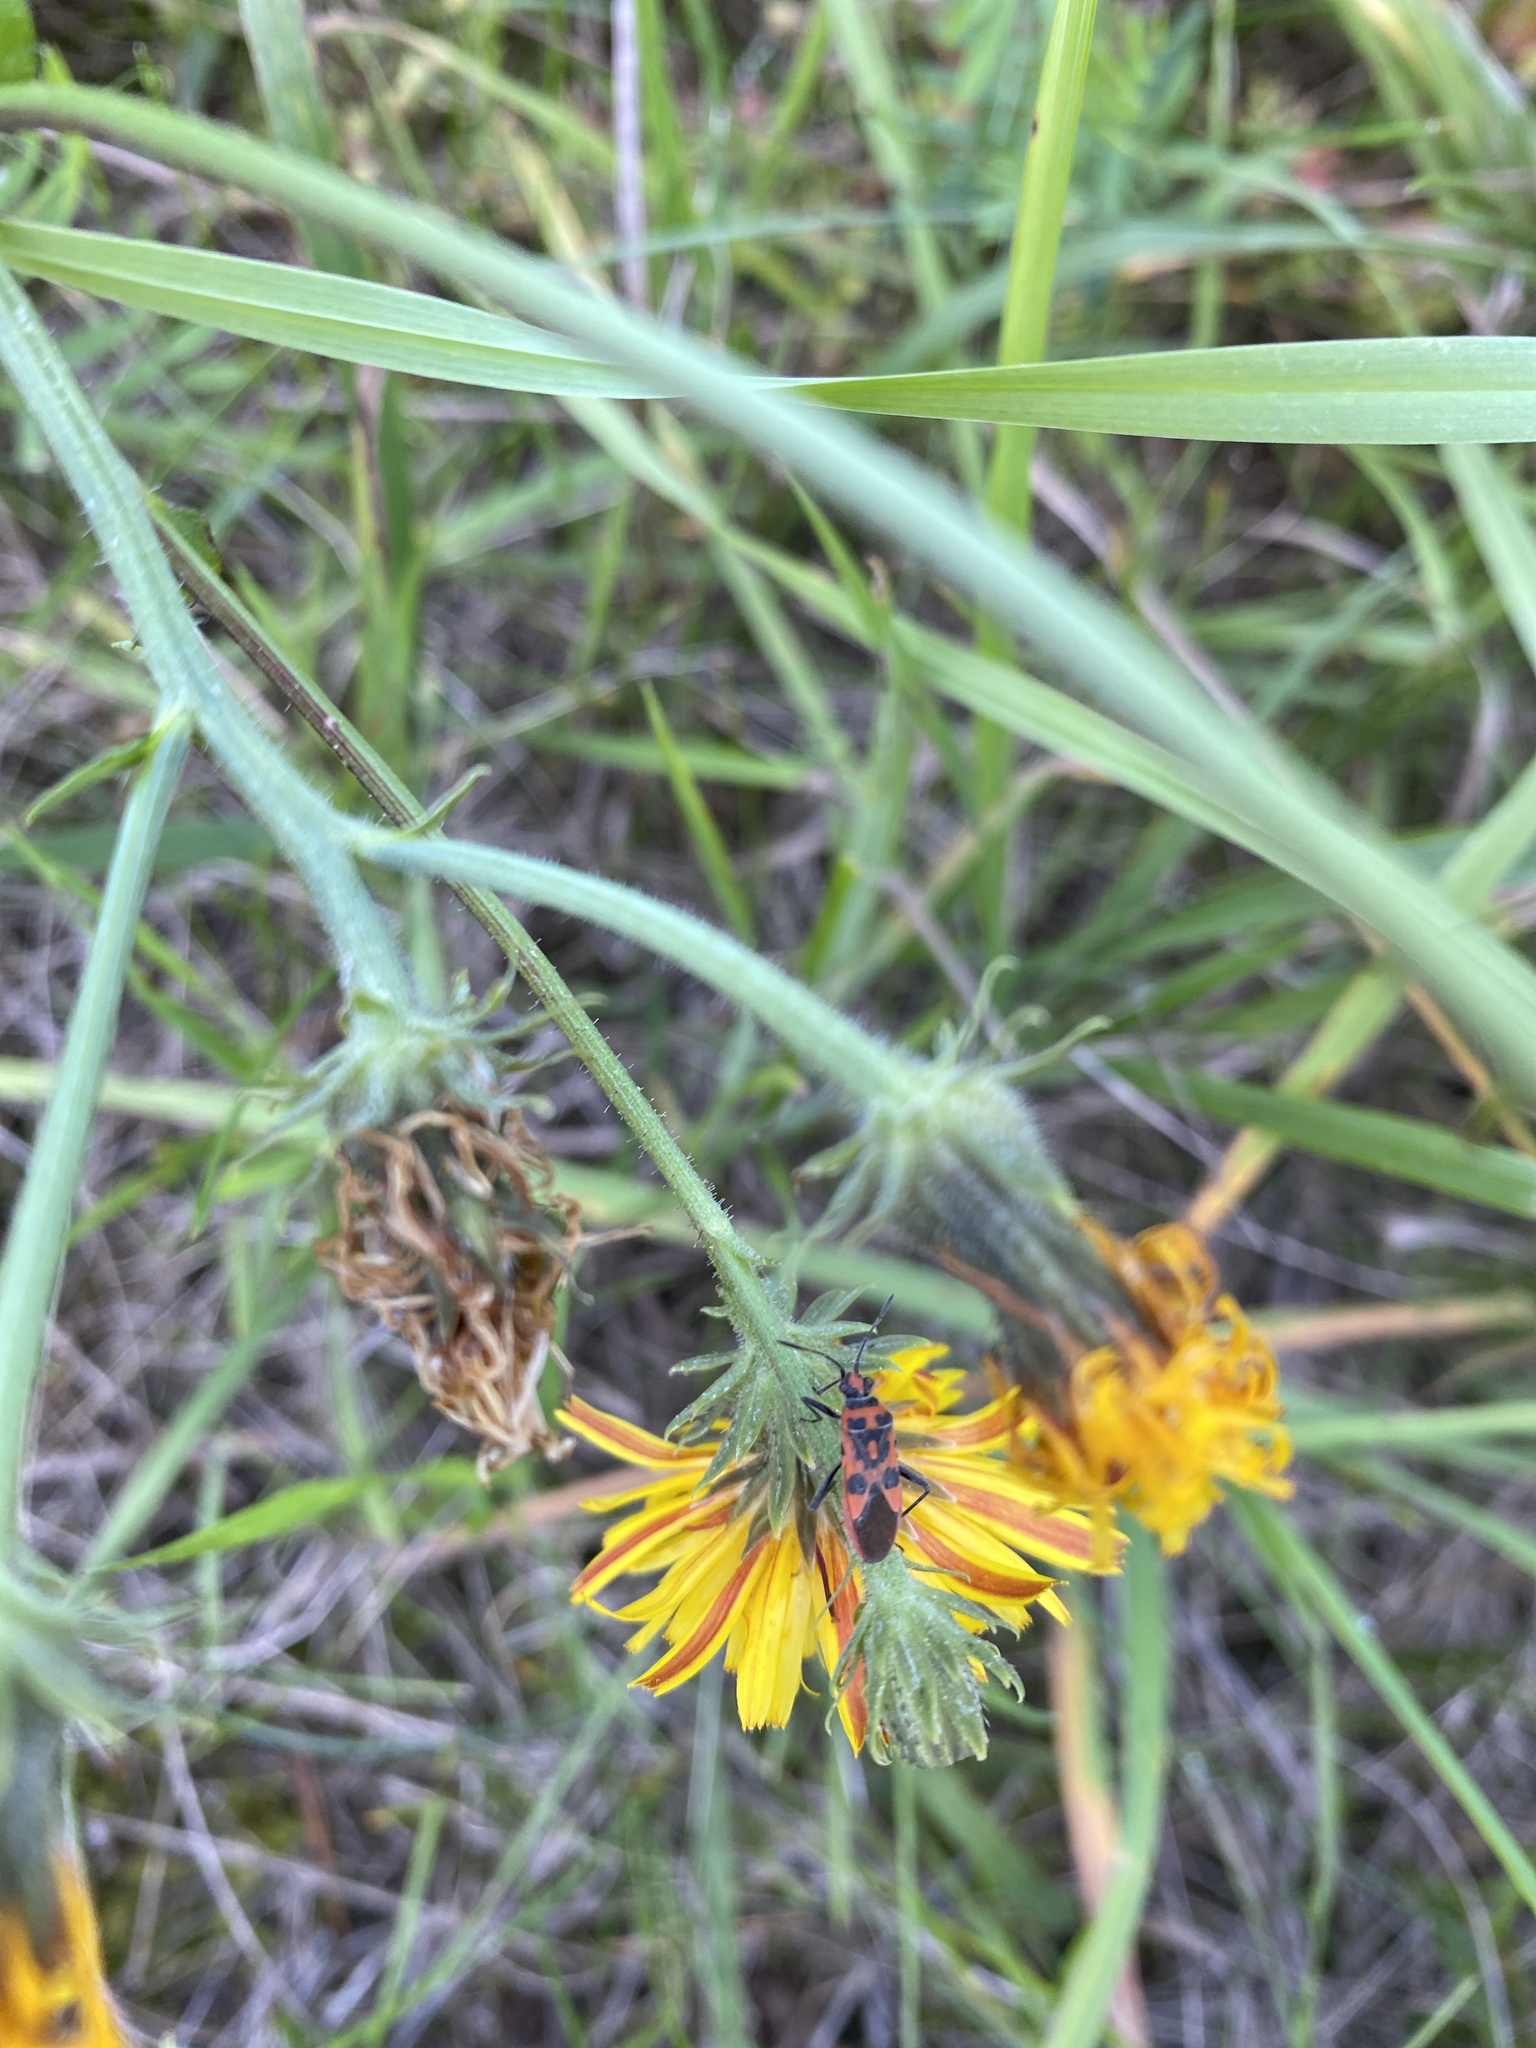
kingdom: Animalia
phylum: Arthropoda
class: Insecta
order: Hemiptera
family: Rhopalidae
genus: Corizus
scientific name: Corizus hyoscyami
